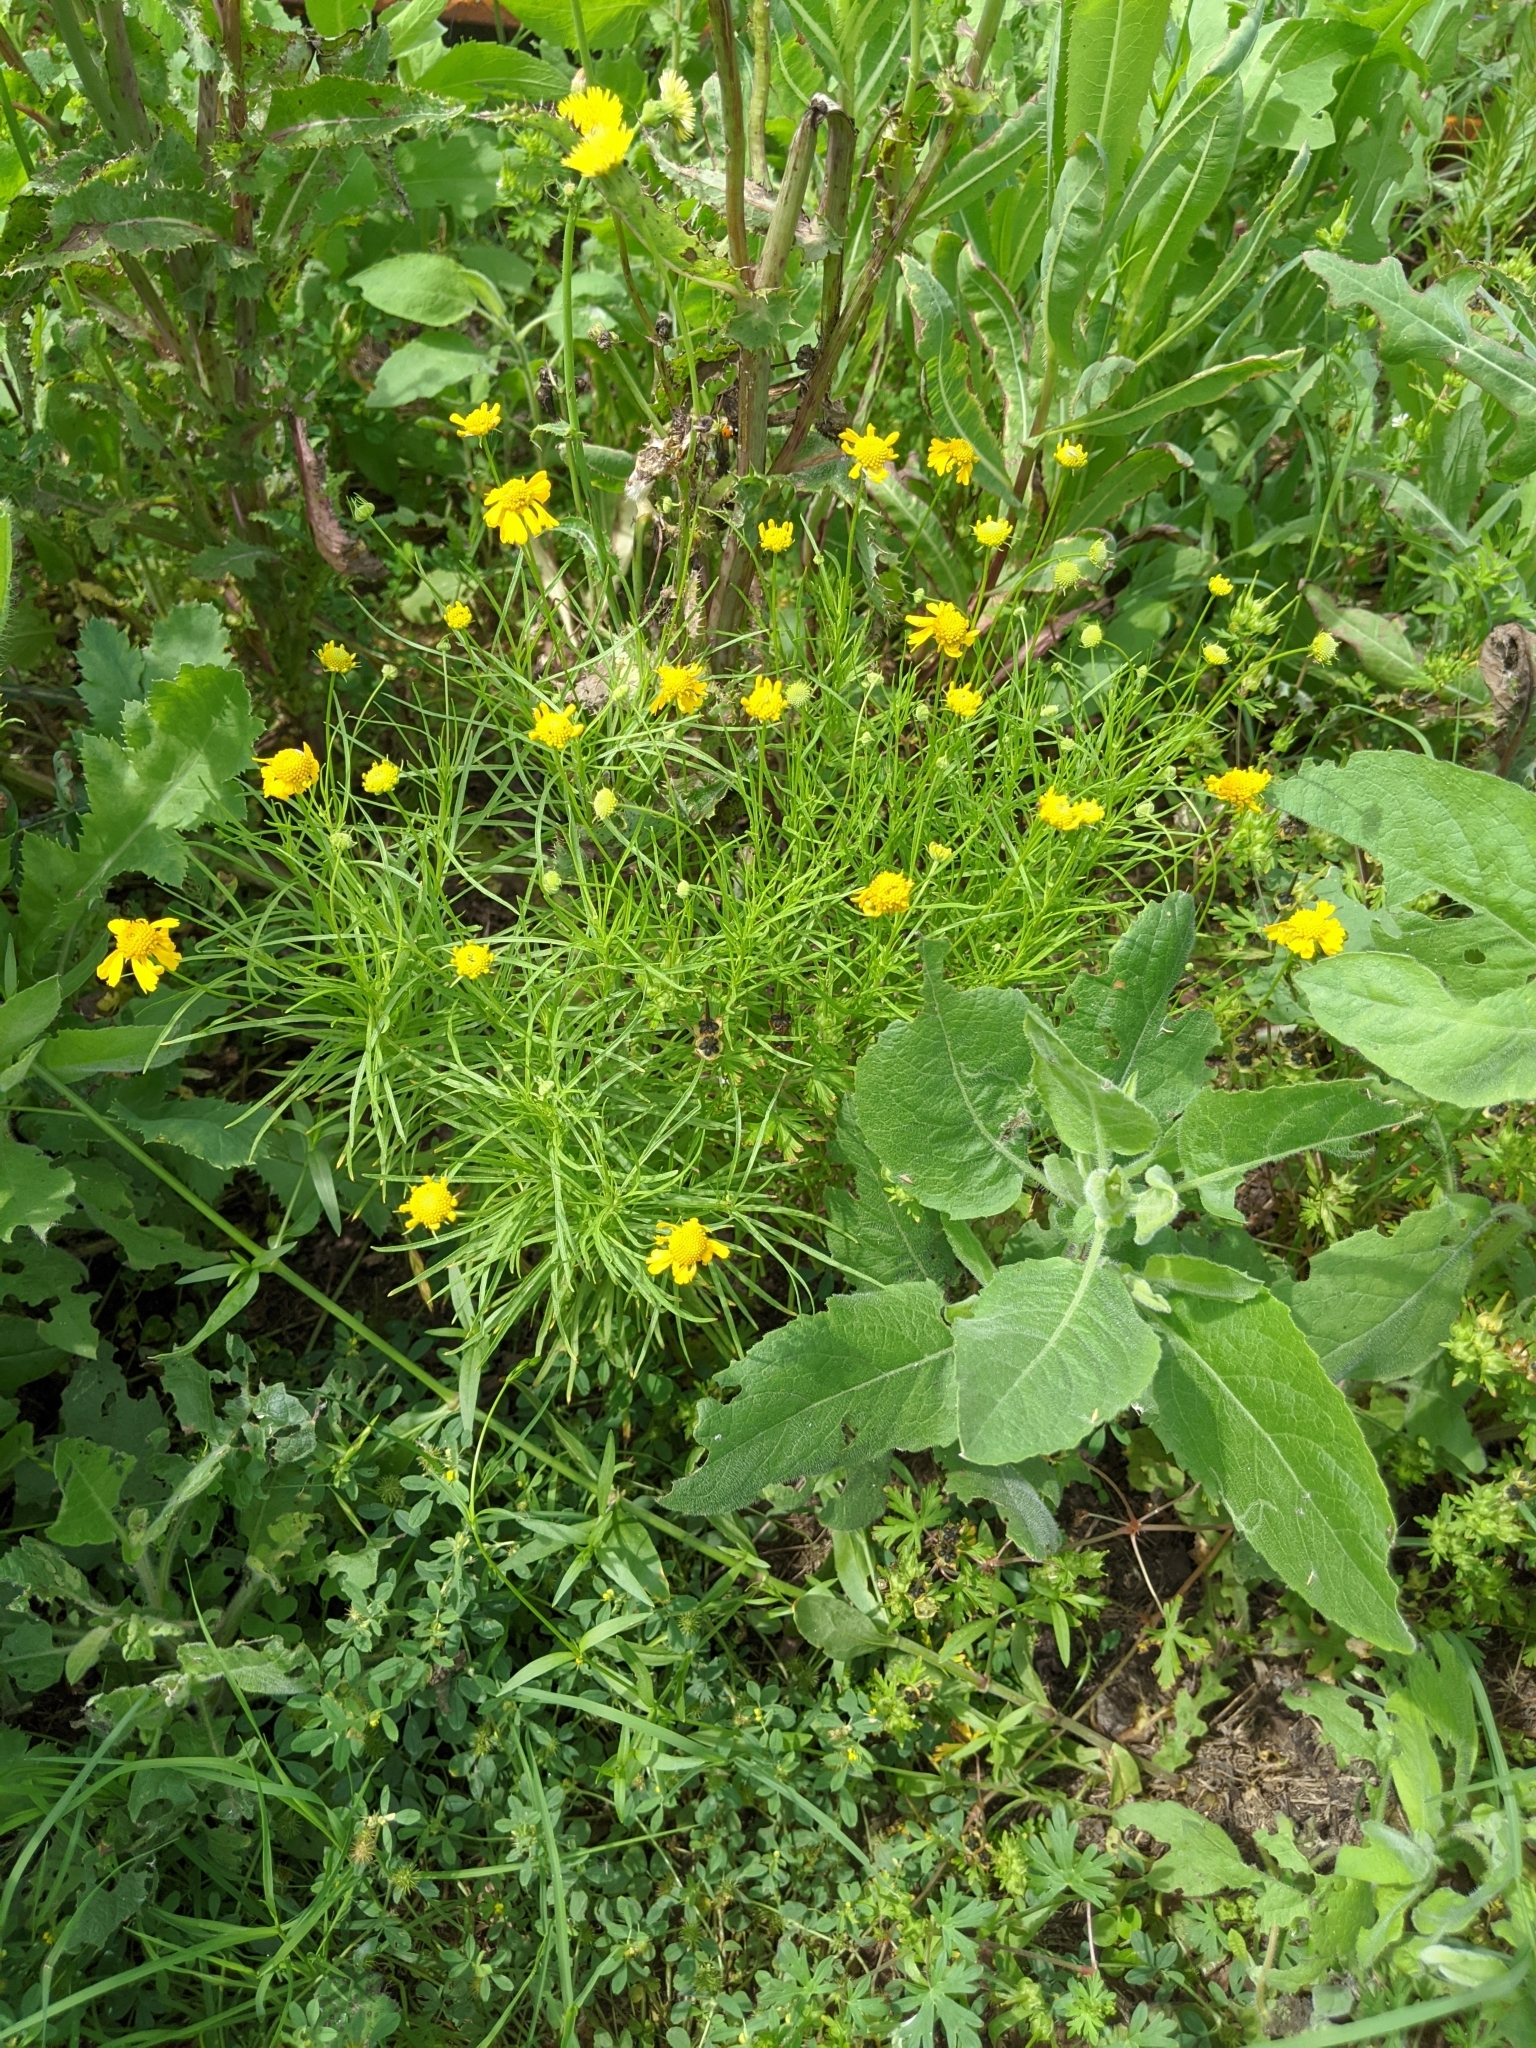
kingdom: Plantae
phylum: Tracheophyta
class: Magnoliopsida
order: Asterales
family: Asteraceae
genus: Helenium
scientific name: Helenium amarum
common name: Bitter sneezeweed
